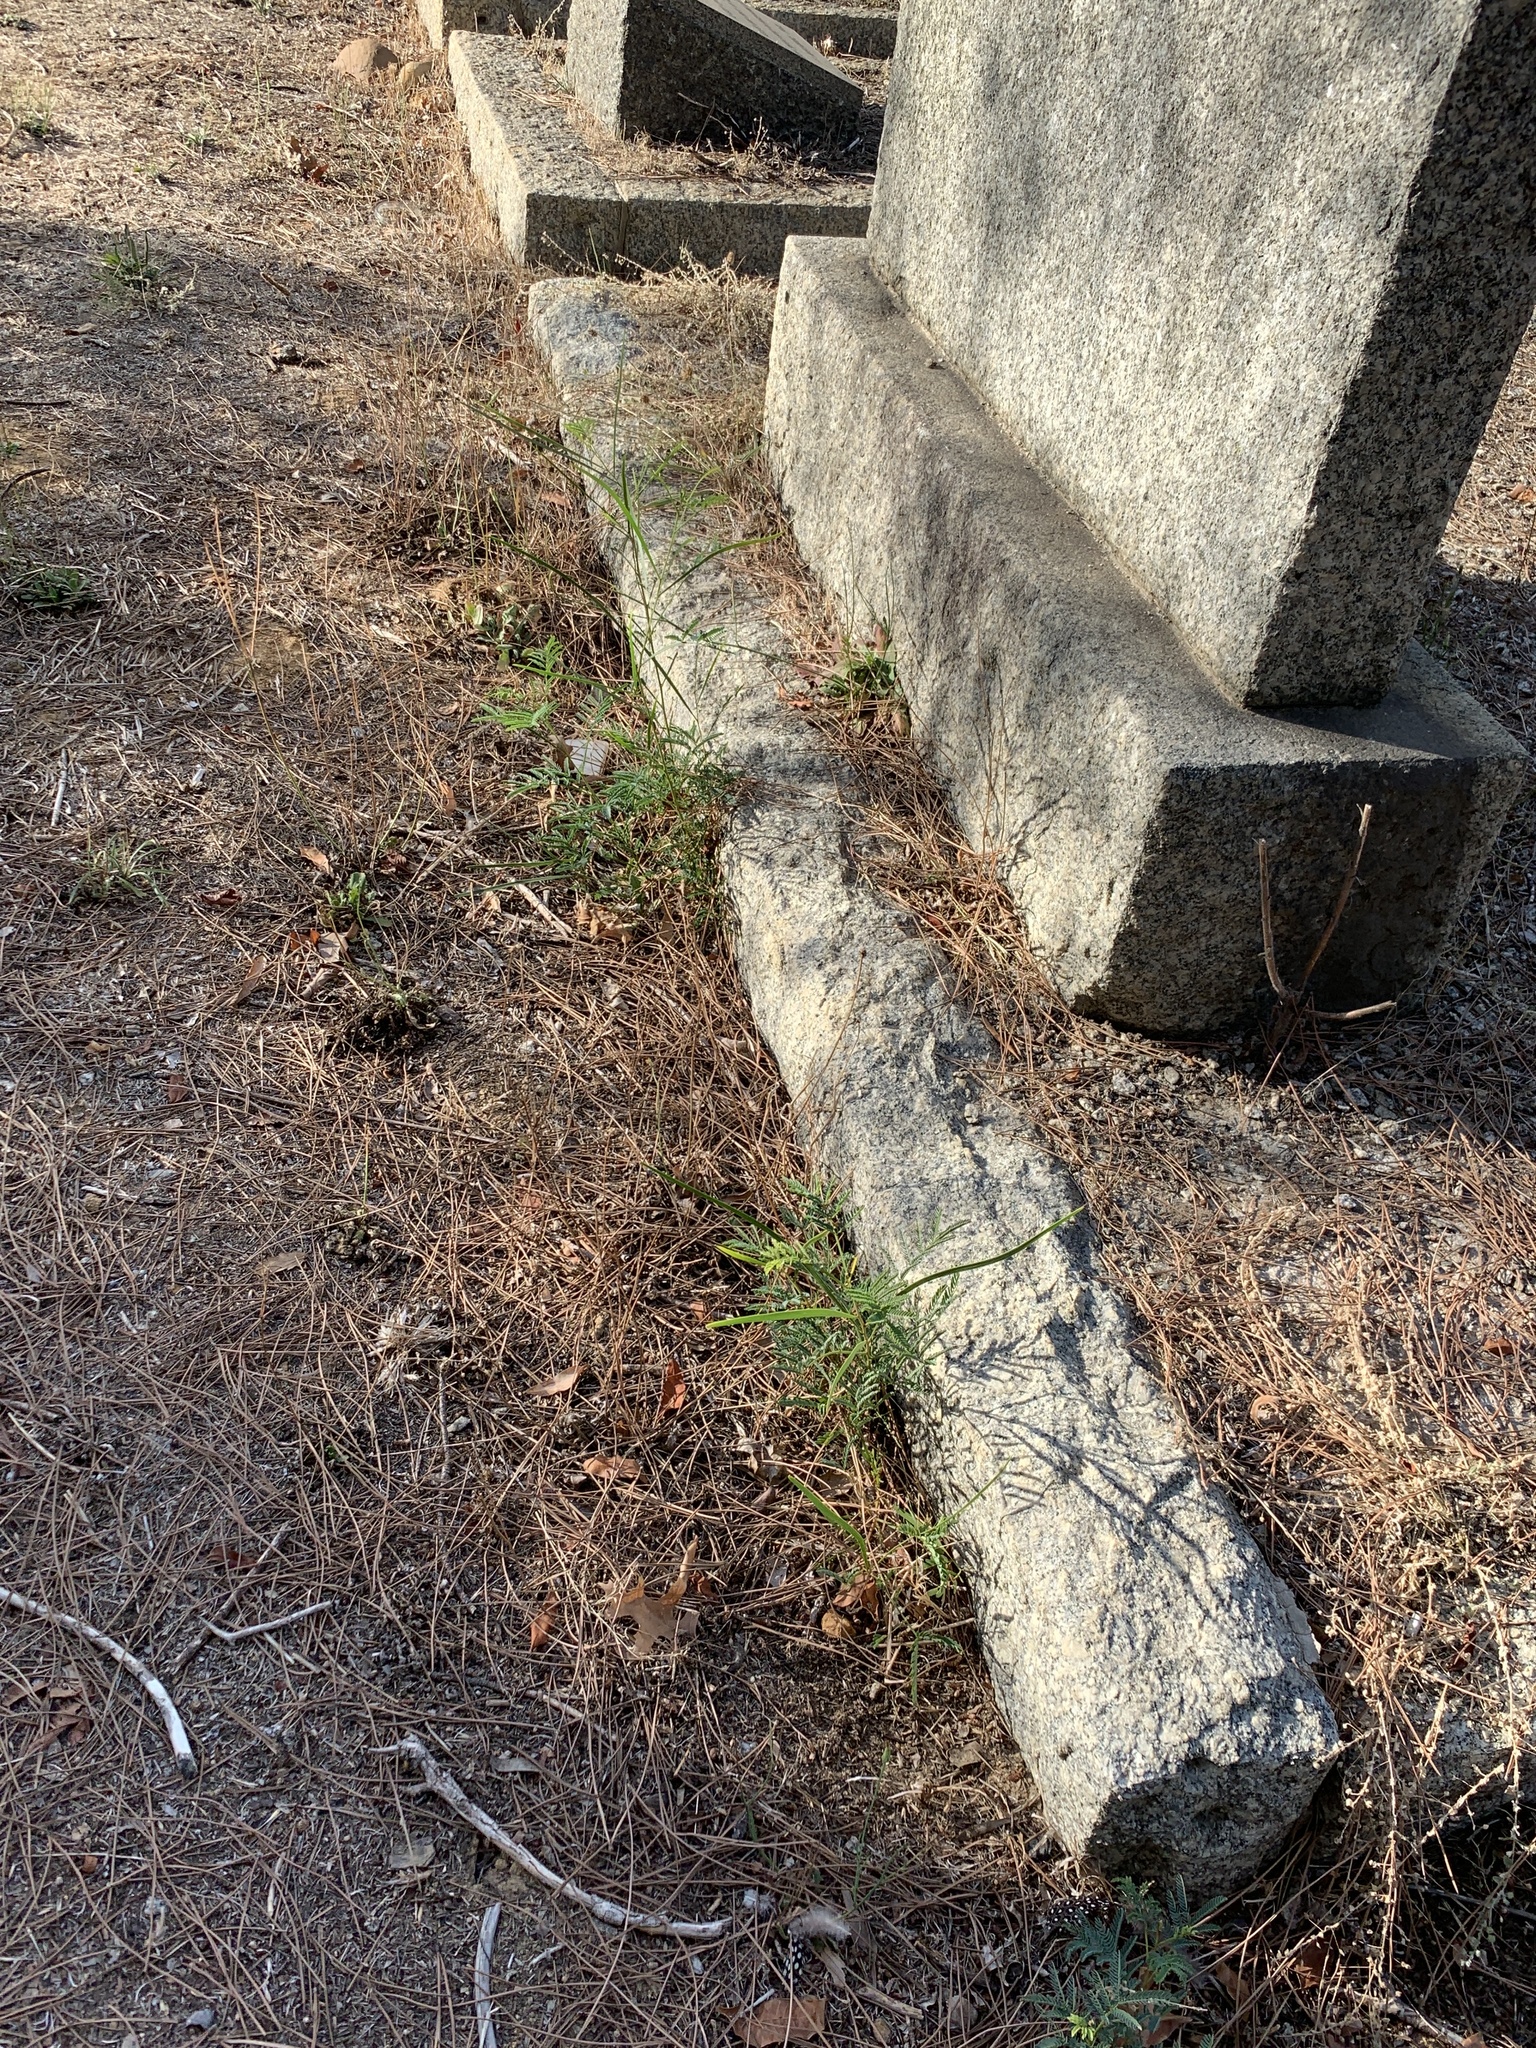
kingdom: Plantae
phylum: Tracheophyta
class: Magnoliopsida
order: Fabales
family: Fabaceae
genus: Acacia
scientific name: Acacia implexa
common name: Black wattle
